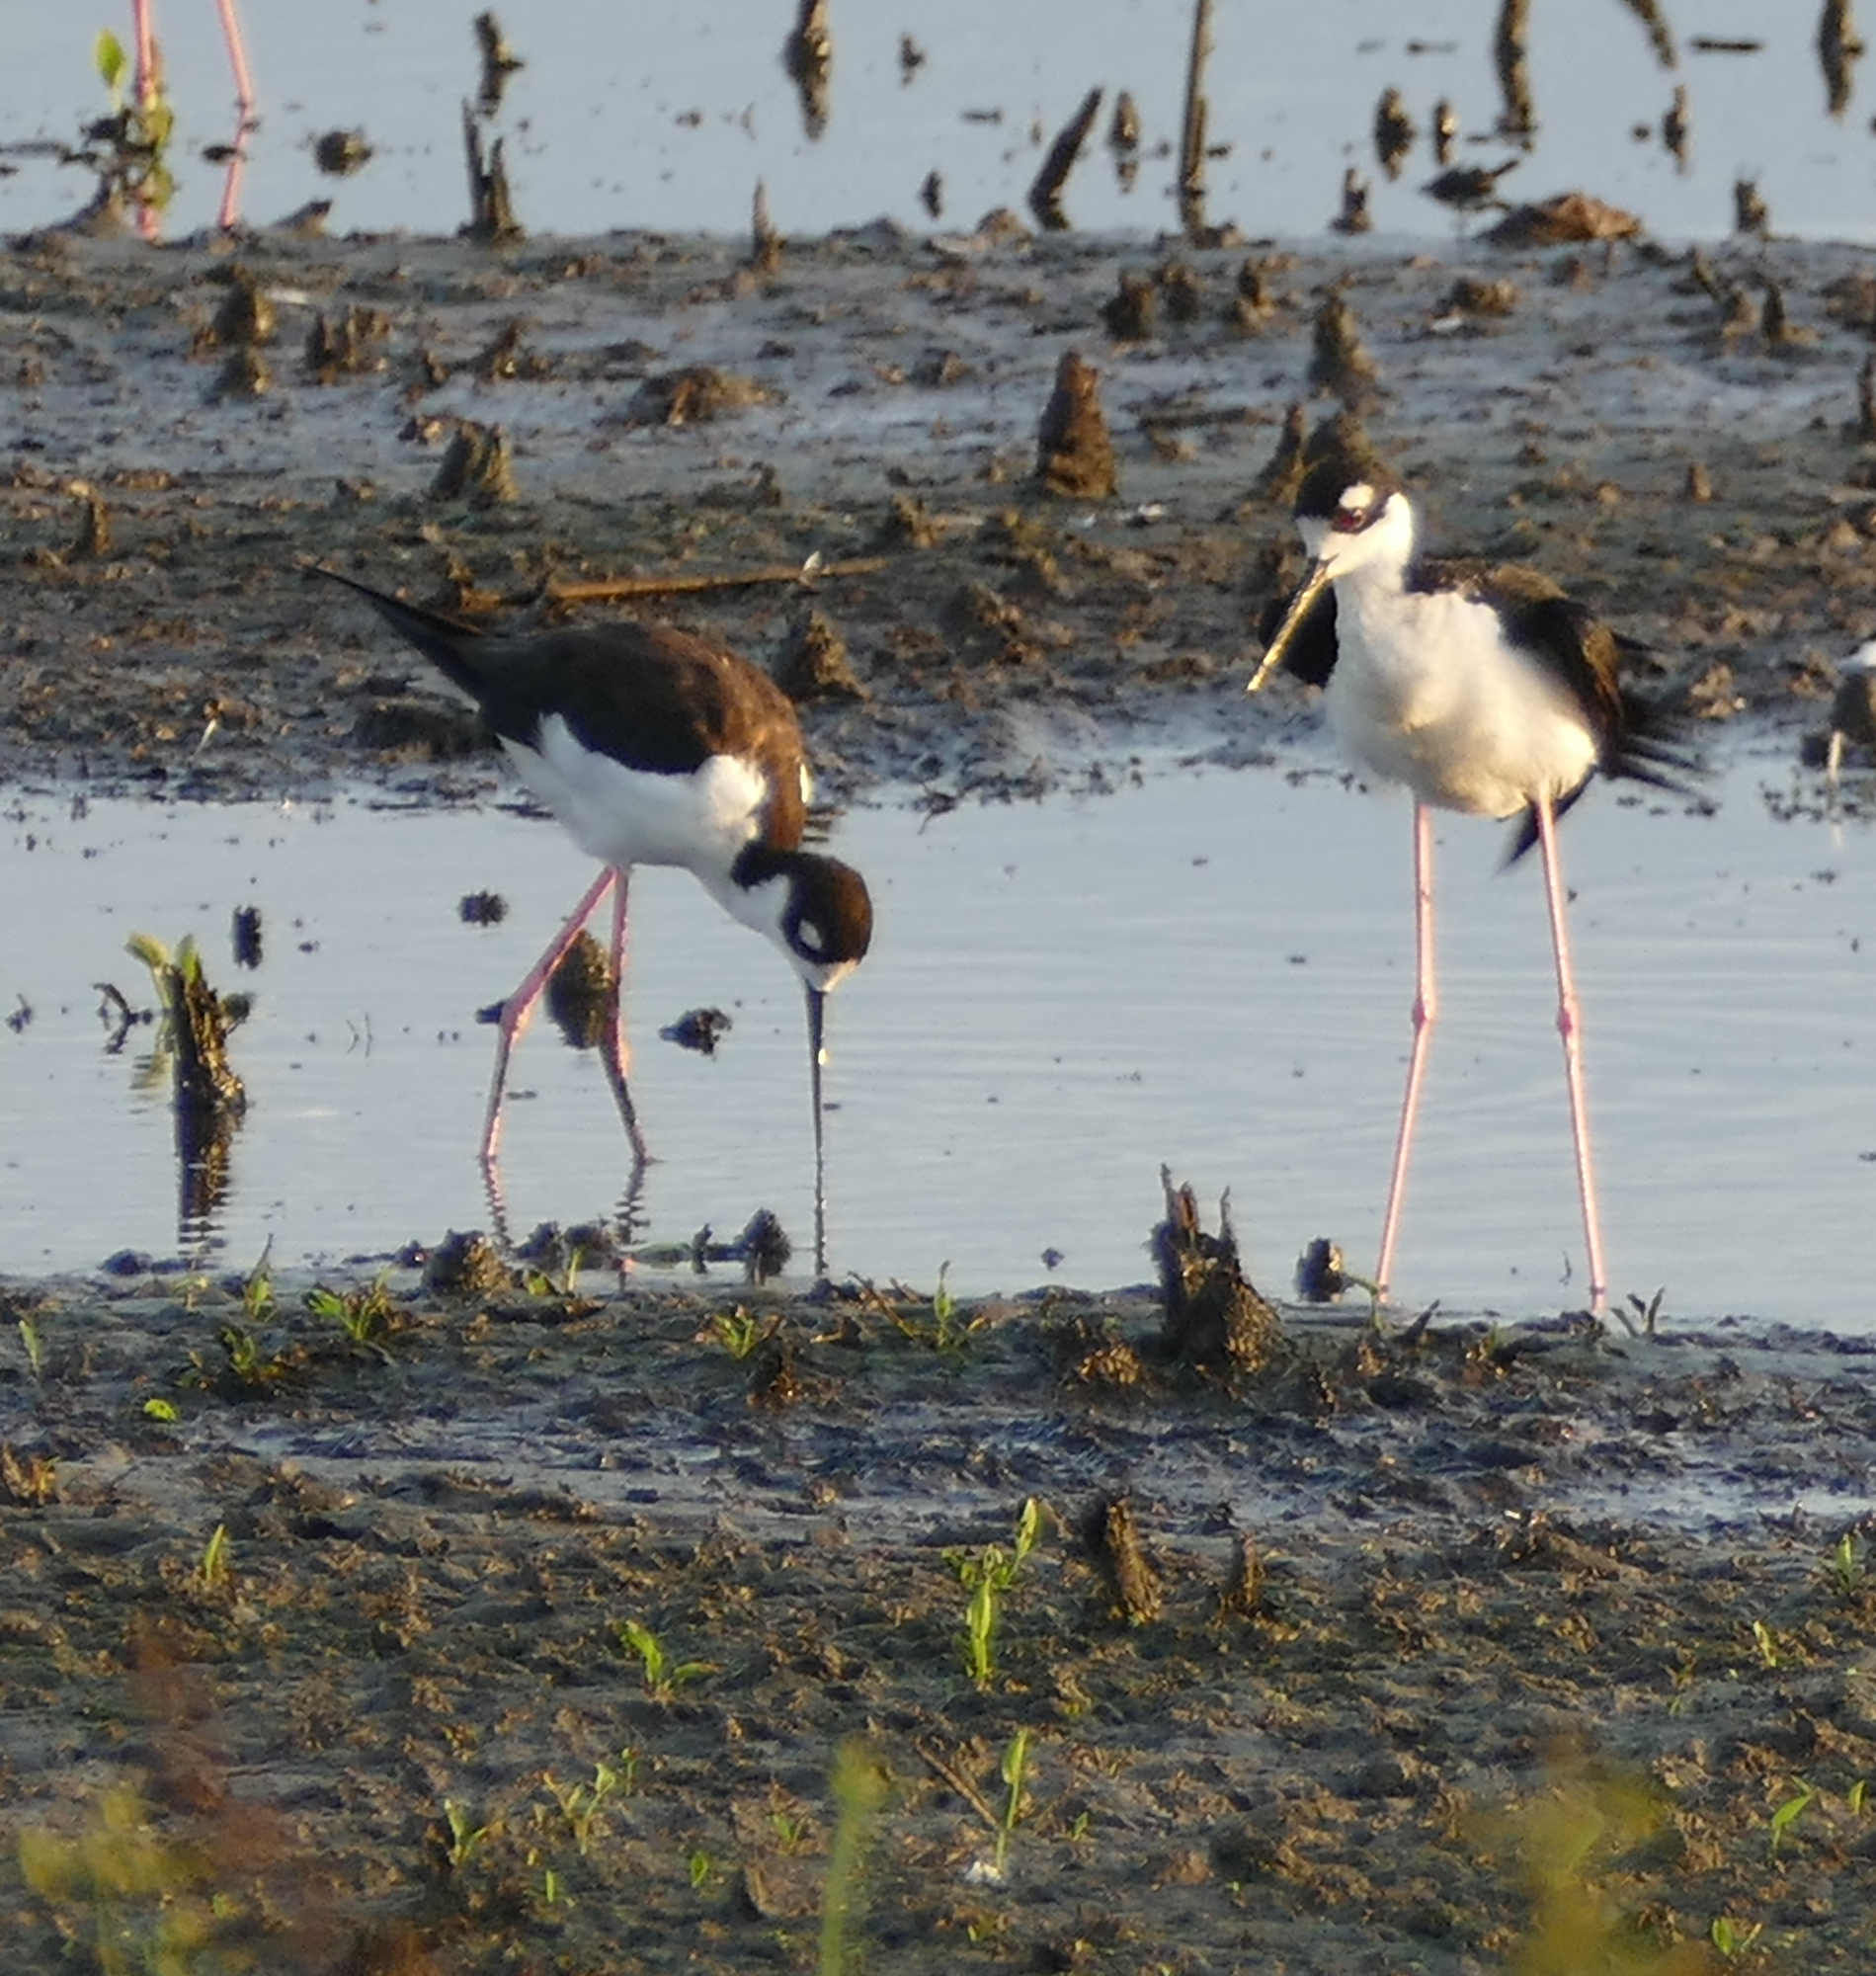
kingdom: Animalia
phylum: Chordata
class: Aves
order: Charadriiformes
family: Recurvirostridae
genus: Himantopus
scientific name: Himantopus mexicanus
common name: Black-necked stilt
